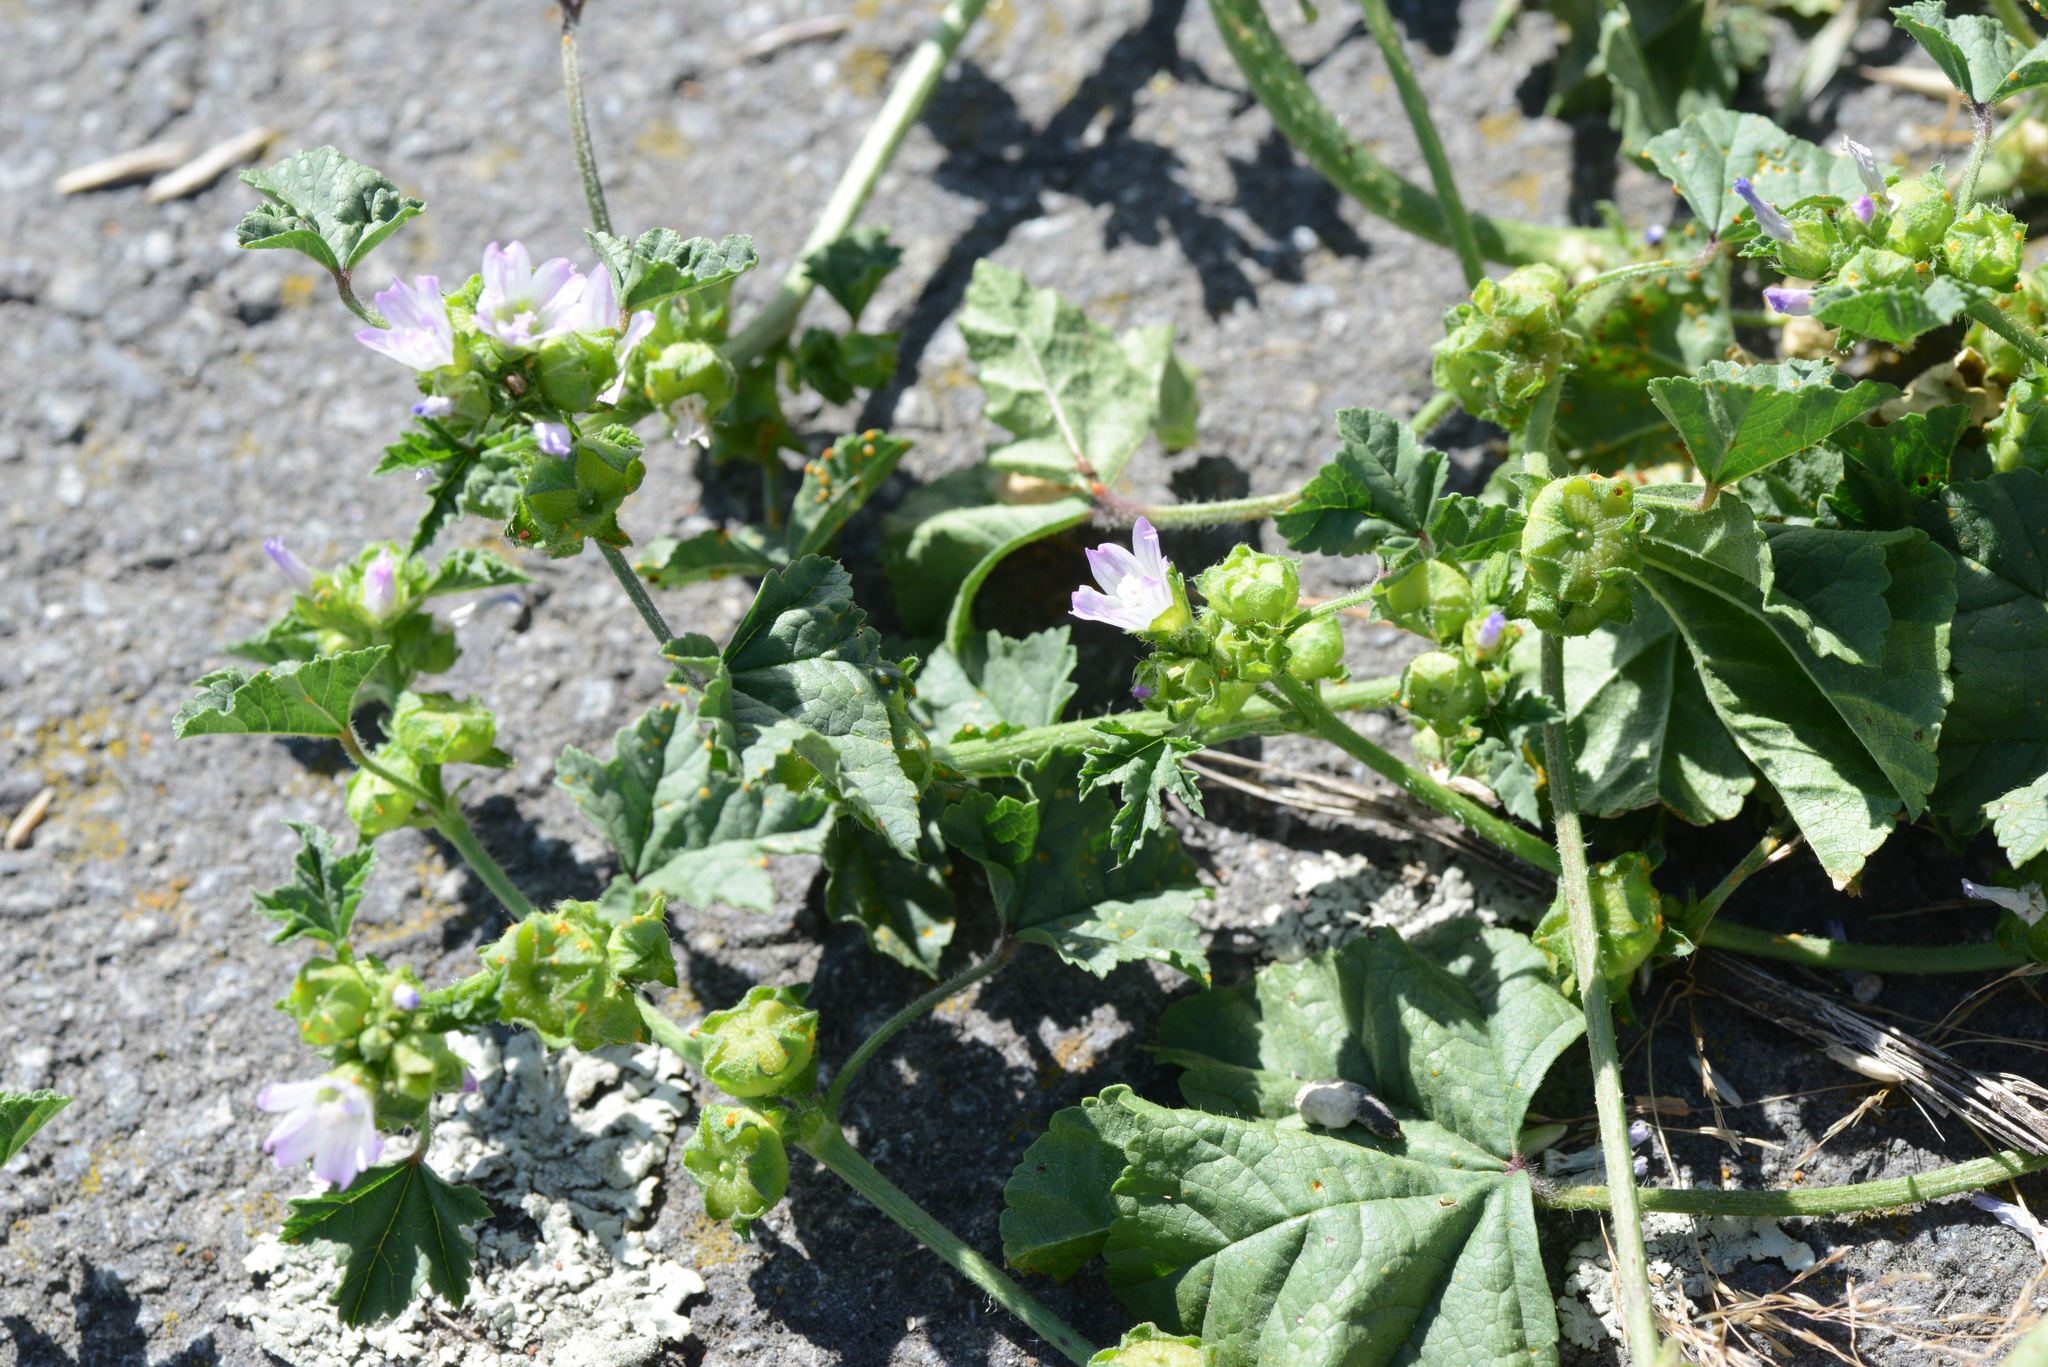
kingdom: Plantae
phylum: Tracheophyta
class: Magnoliopsida
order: Malvales
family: Malvaceae
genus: Malva
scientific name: Malva neglecta
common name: Common mallow
